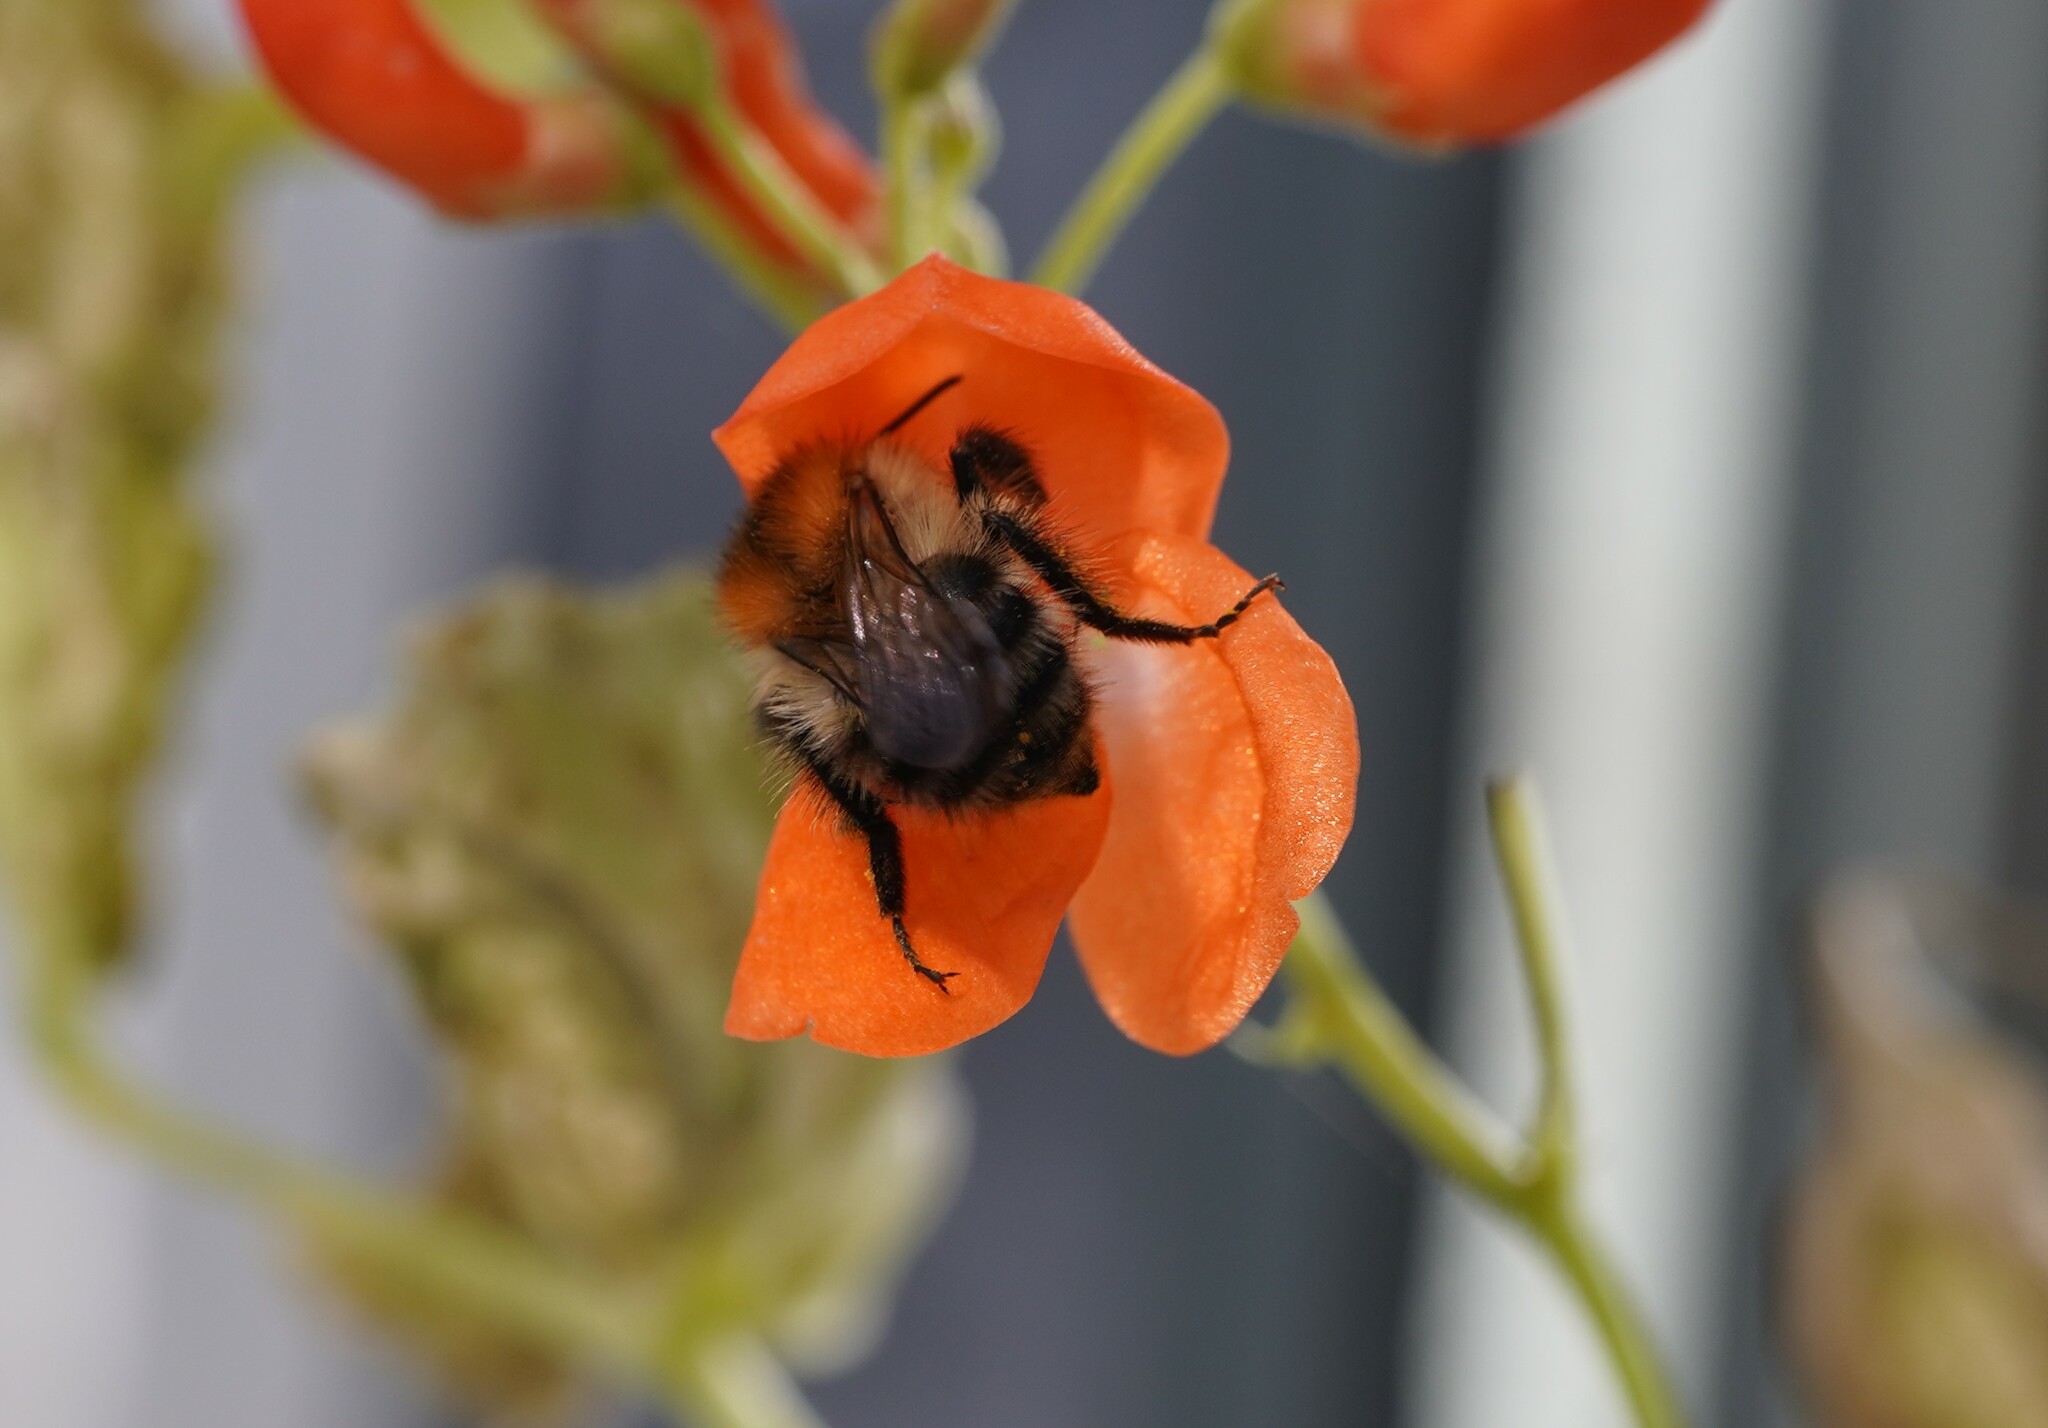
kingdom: Animalia
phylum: Arthropoda
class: Insecta
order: Hymenoptera
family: Apidae
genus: Bombus
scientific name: Bombus pascuorum
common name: Common carder bee
